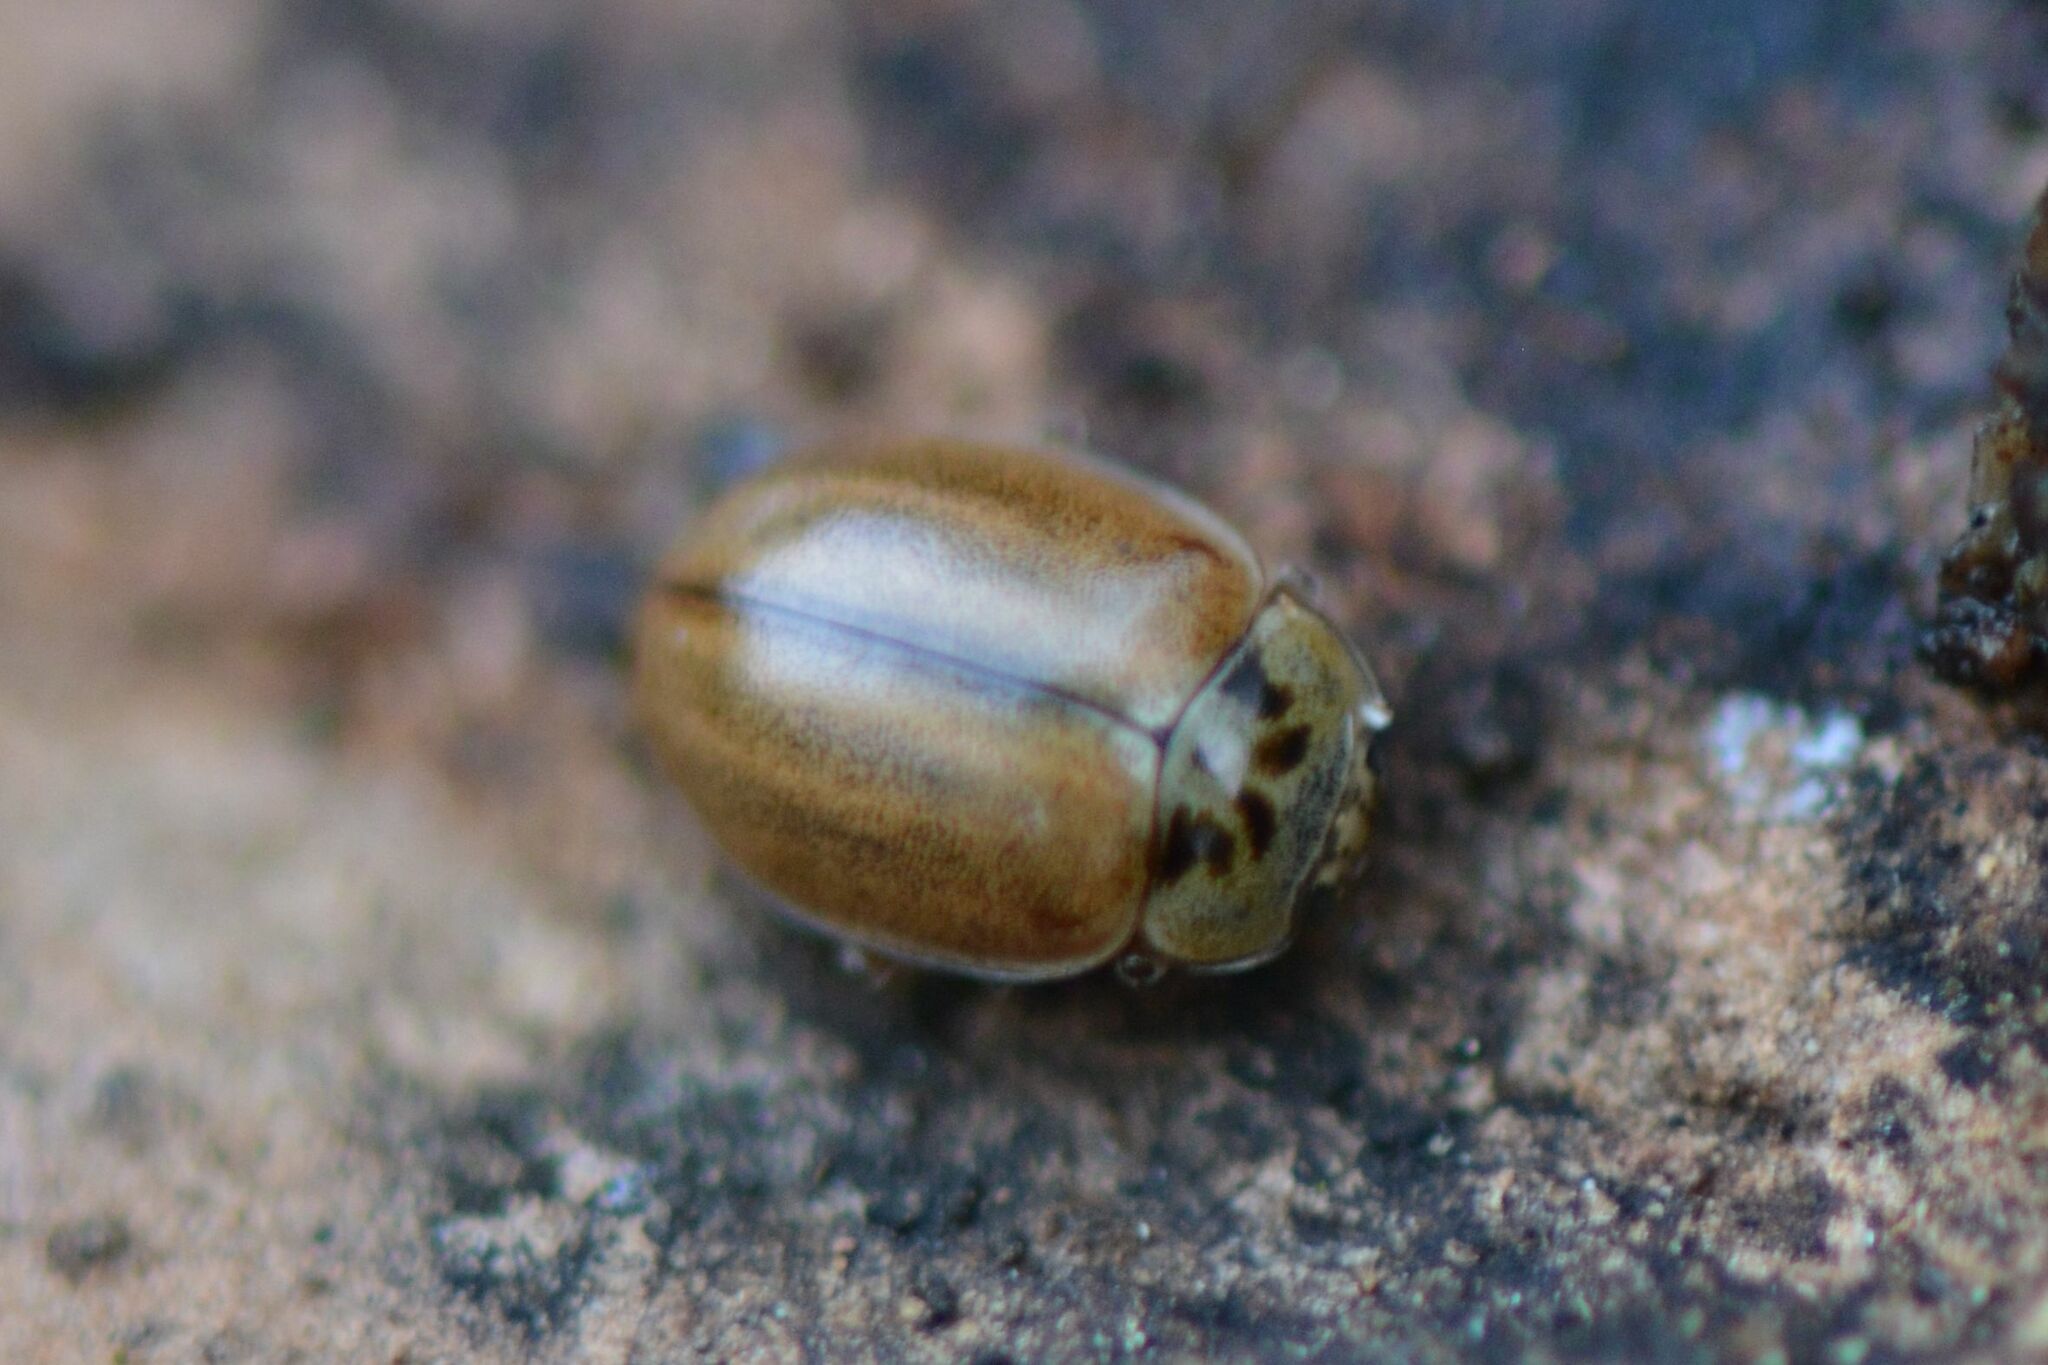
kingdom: Animalia
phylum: Arthropoda
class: Insecta
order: Coleoptera
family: Coccinellidae
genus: Aphidecta
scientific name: Aphidecta obliterata
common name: Larch ladybird
